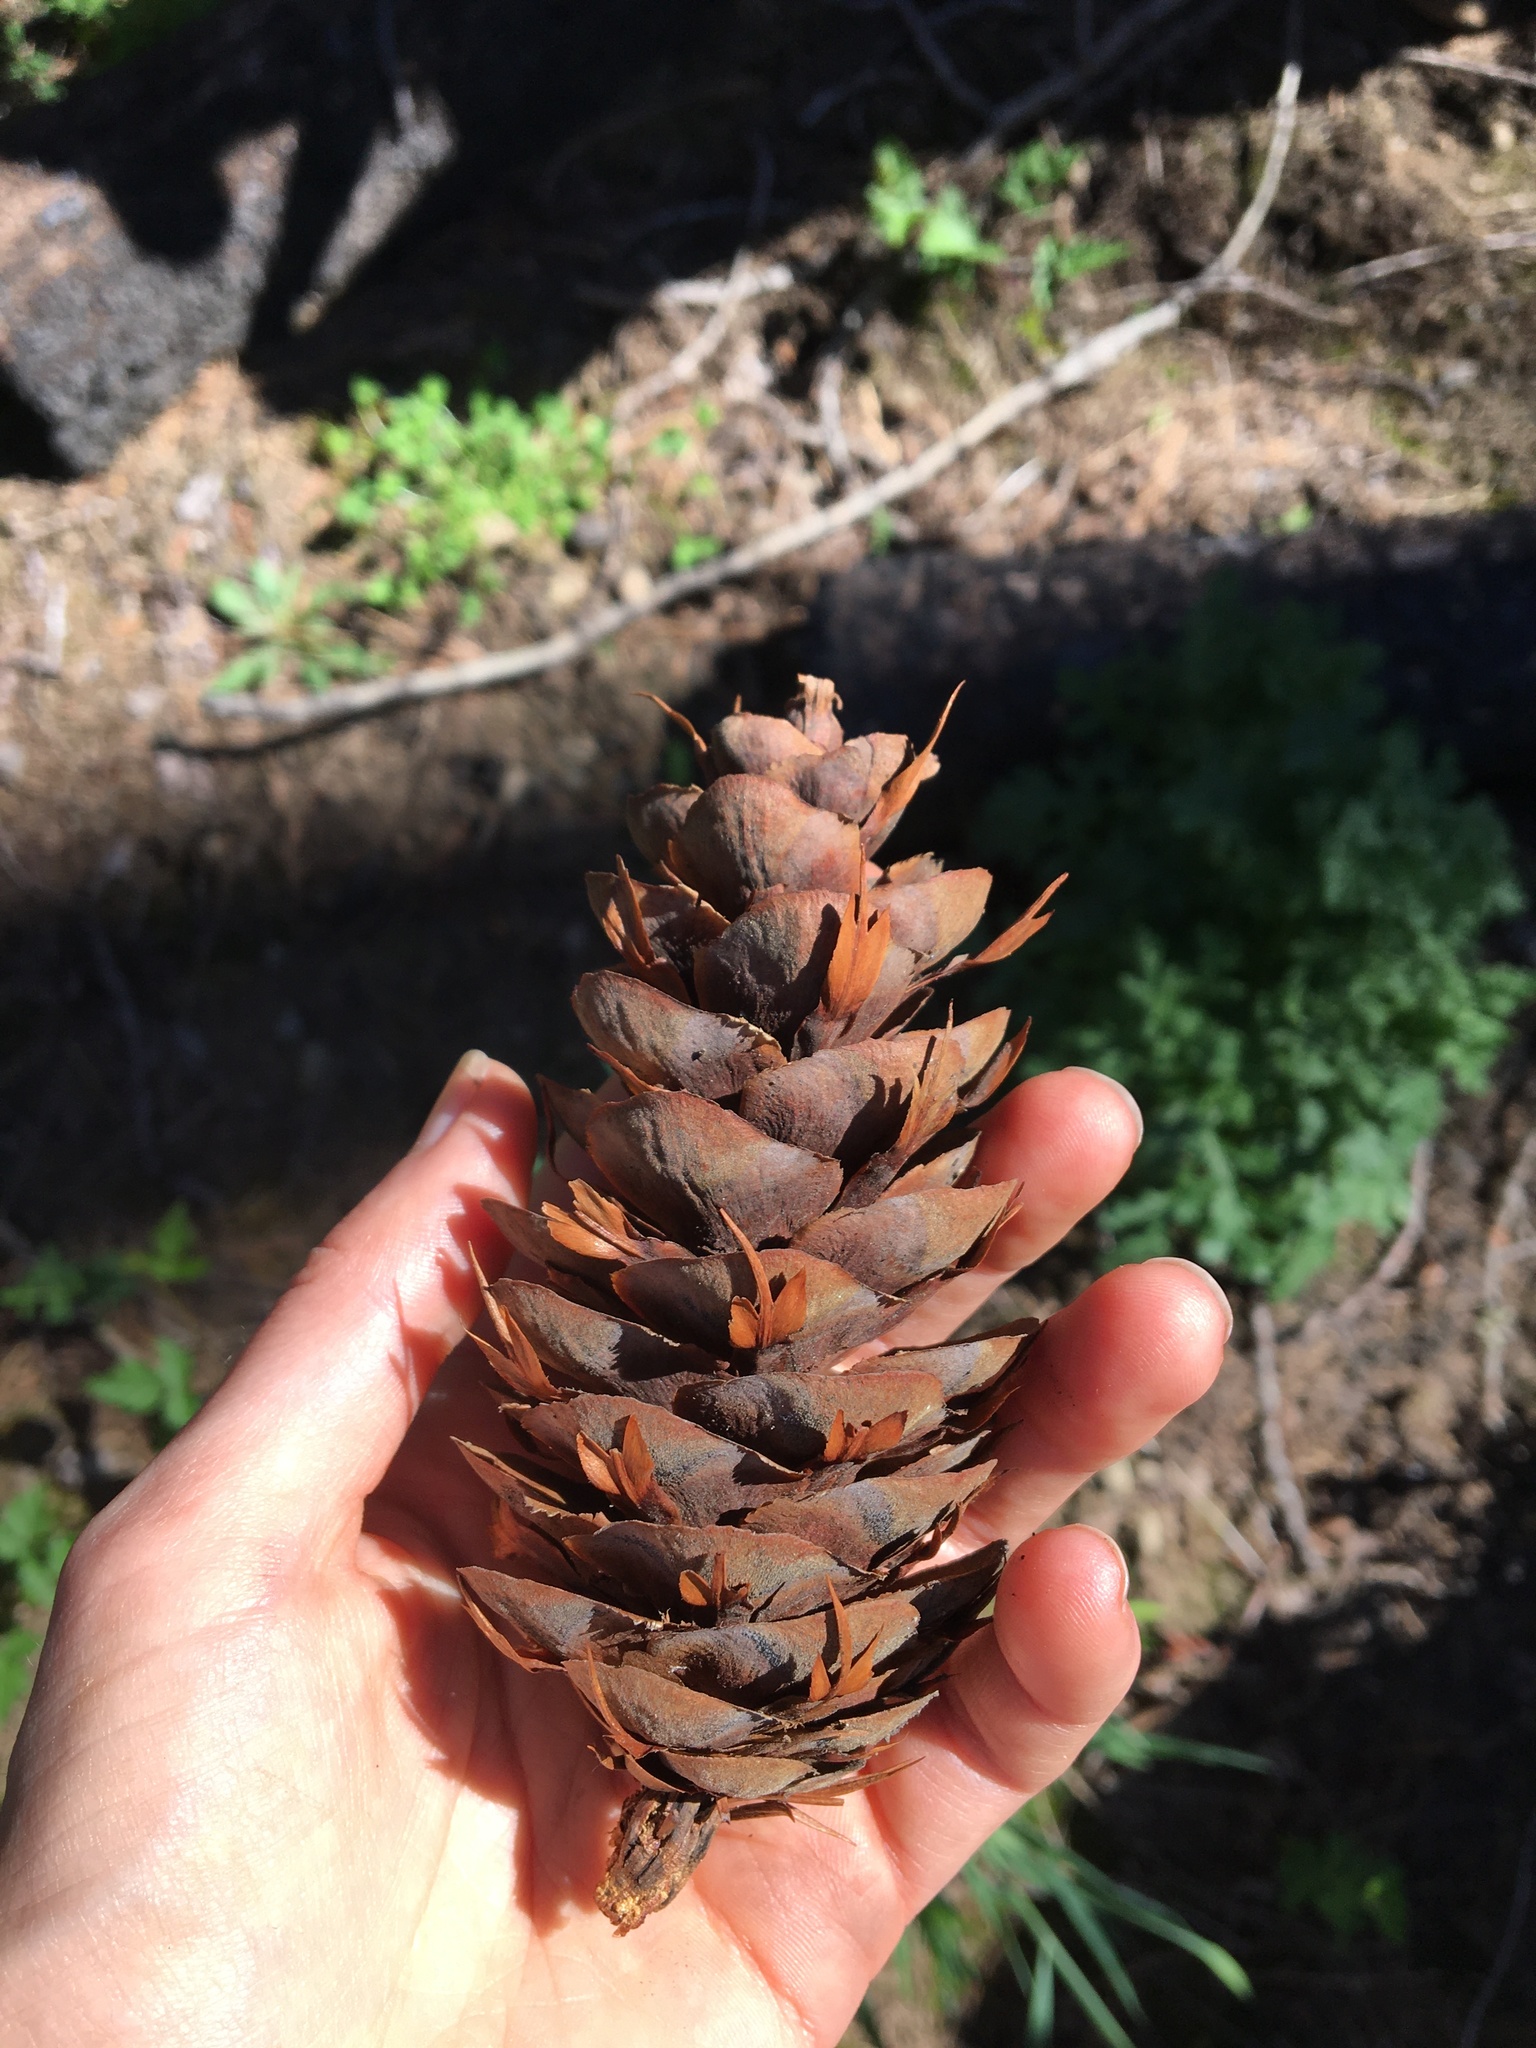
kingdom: Plantae
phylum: Tracheophyta
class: Pinopsida
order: Pinales
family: Pinaceae
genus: Pseudotsuga
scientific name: Pseudotsuga menziesii
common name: Douglas fir
